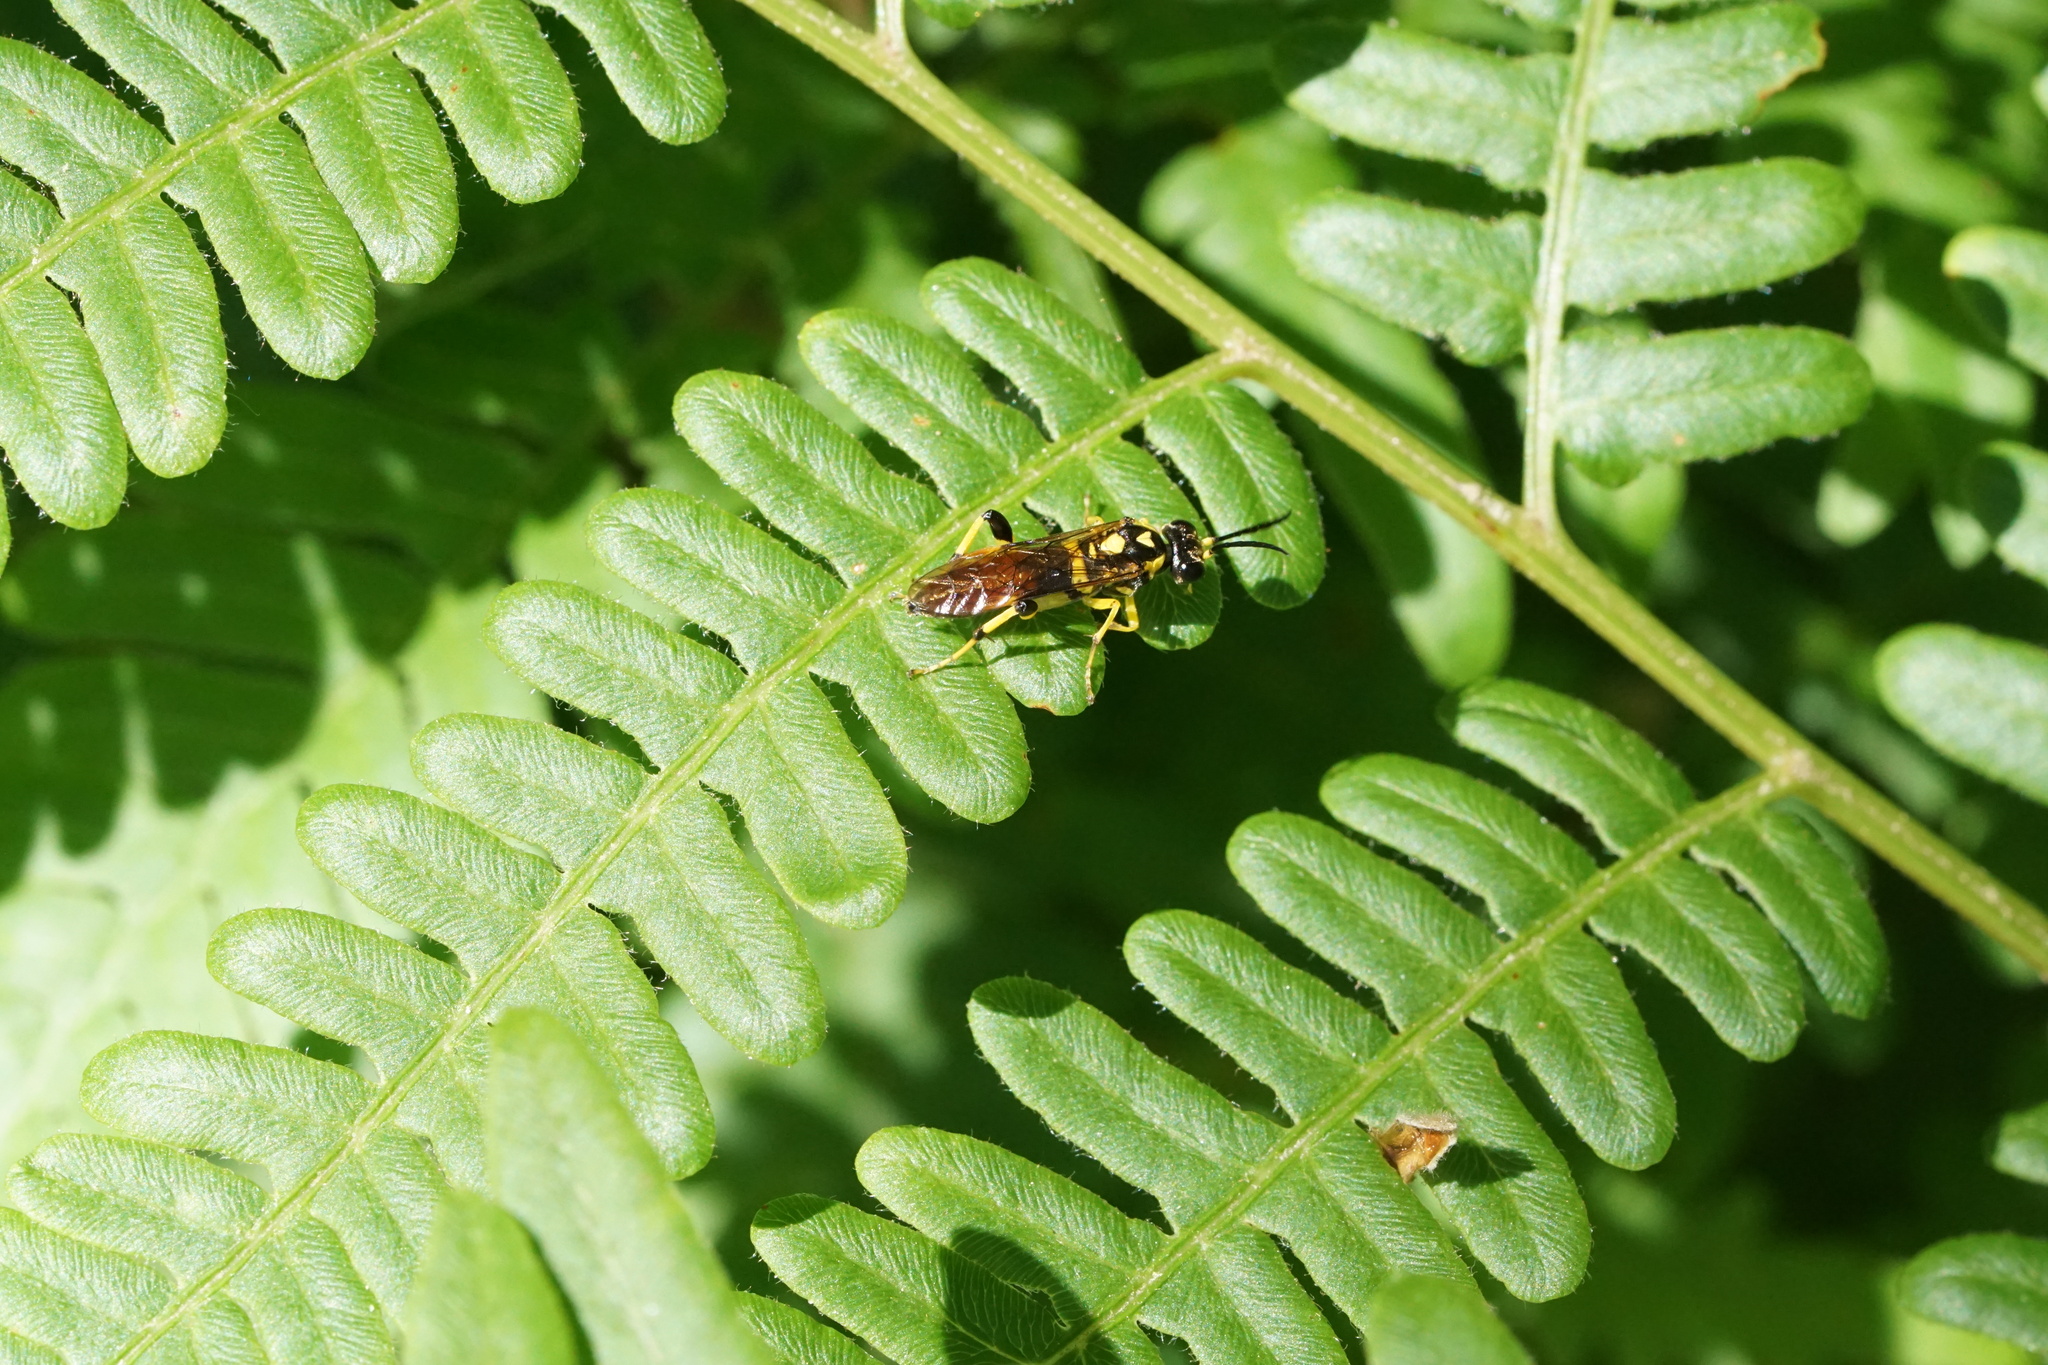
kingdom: Animalia
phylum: Arthropoda
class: Insecta
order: Hymenoptera
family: Tenthredinidae
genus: Macrophya
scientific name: Macrophya formosa
